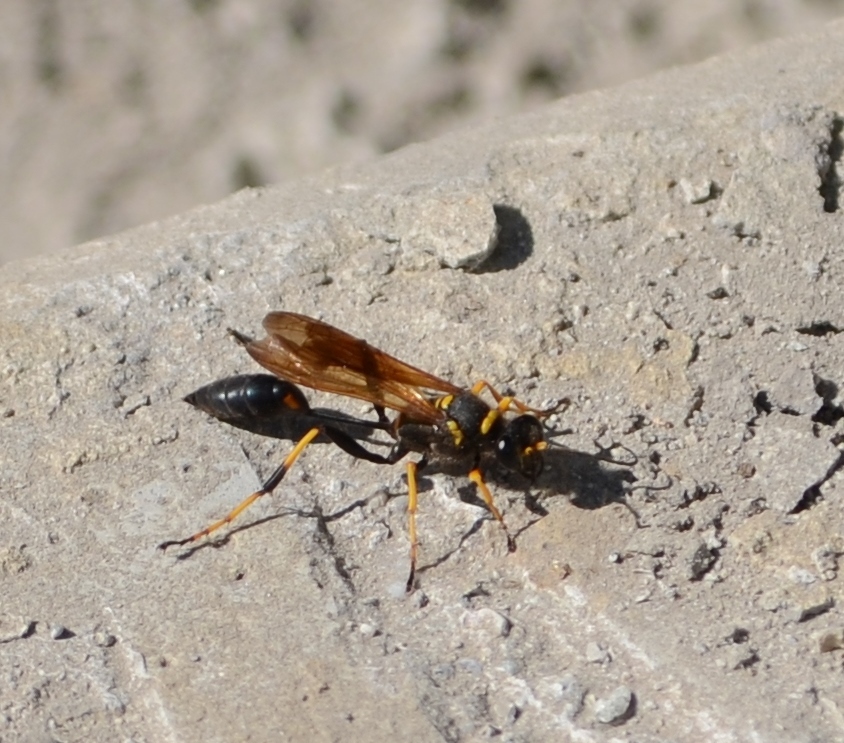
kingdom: Animalia
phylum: Arthropoda
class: Insecta
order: Hymenoptera
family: Sphecidae
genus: Sceliphron
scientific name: Sceliphron caementarium
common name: Mud dauber
